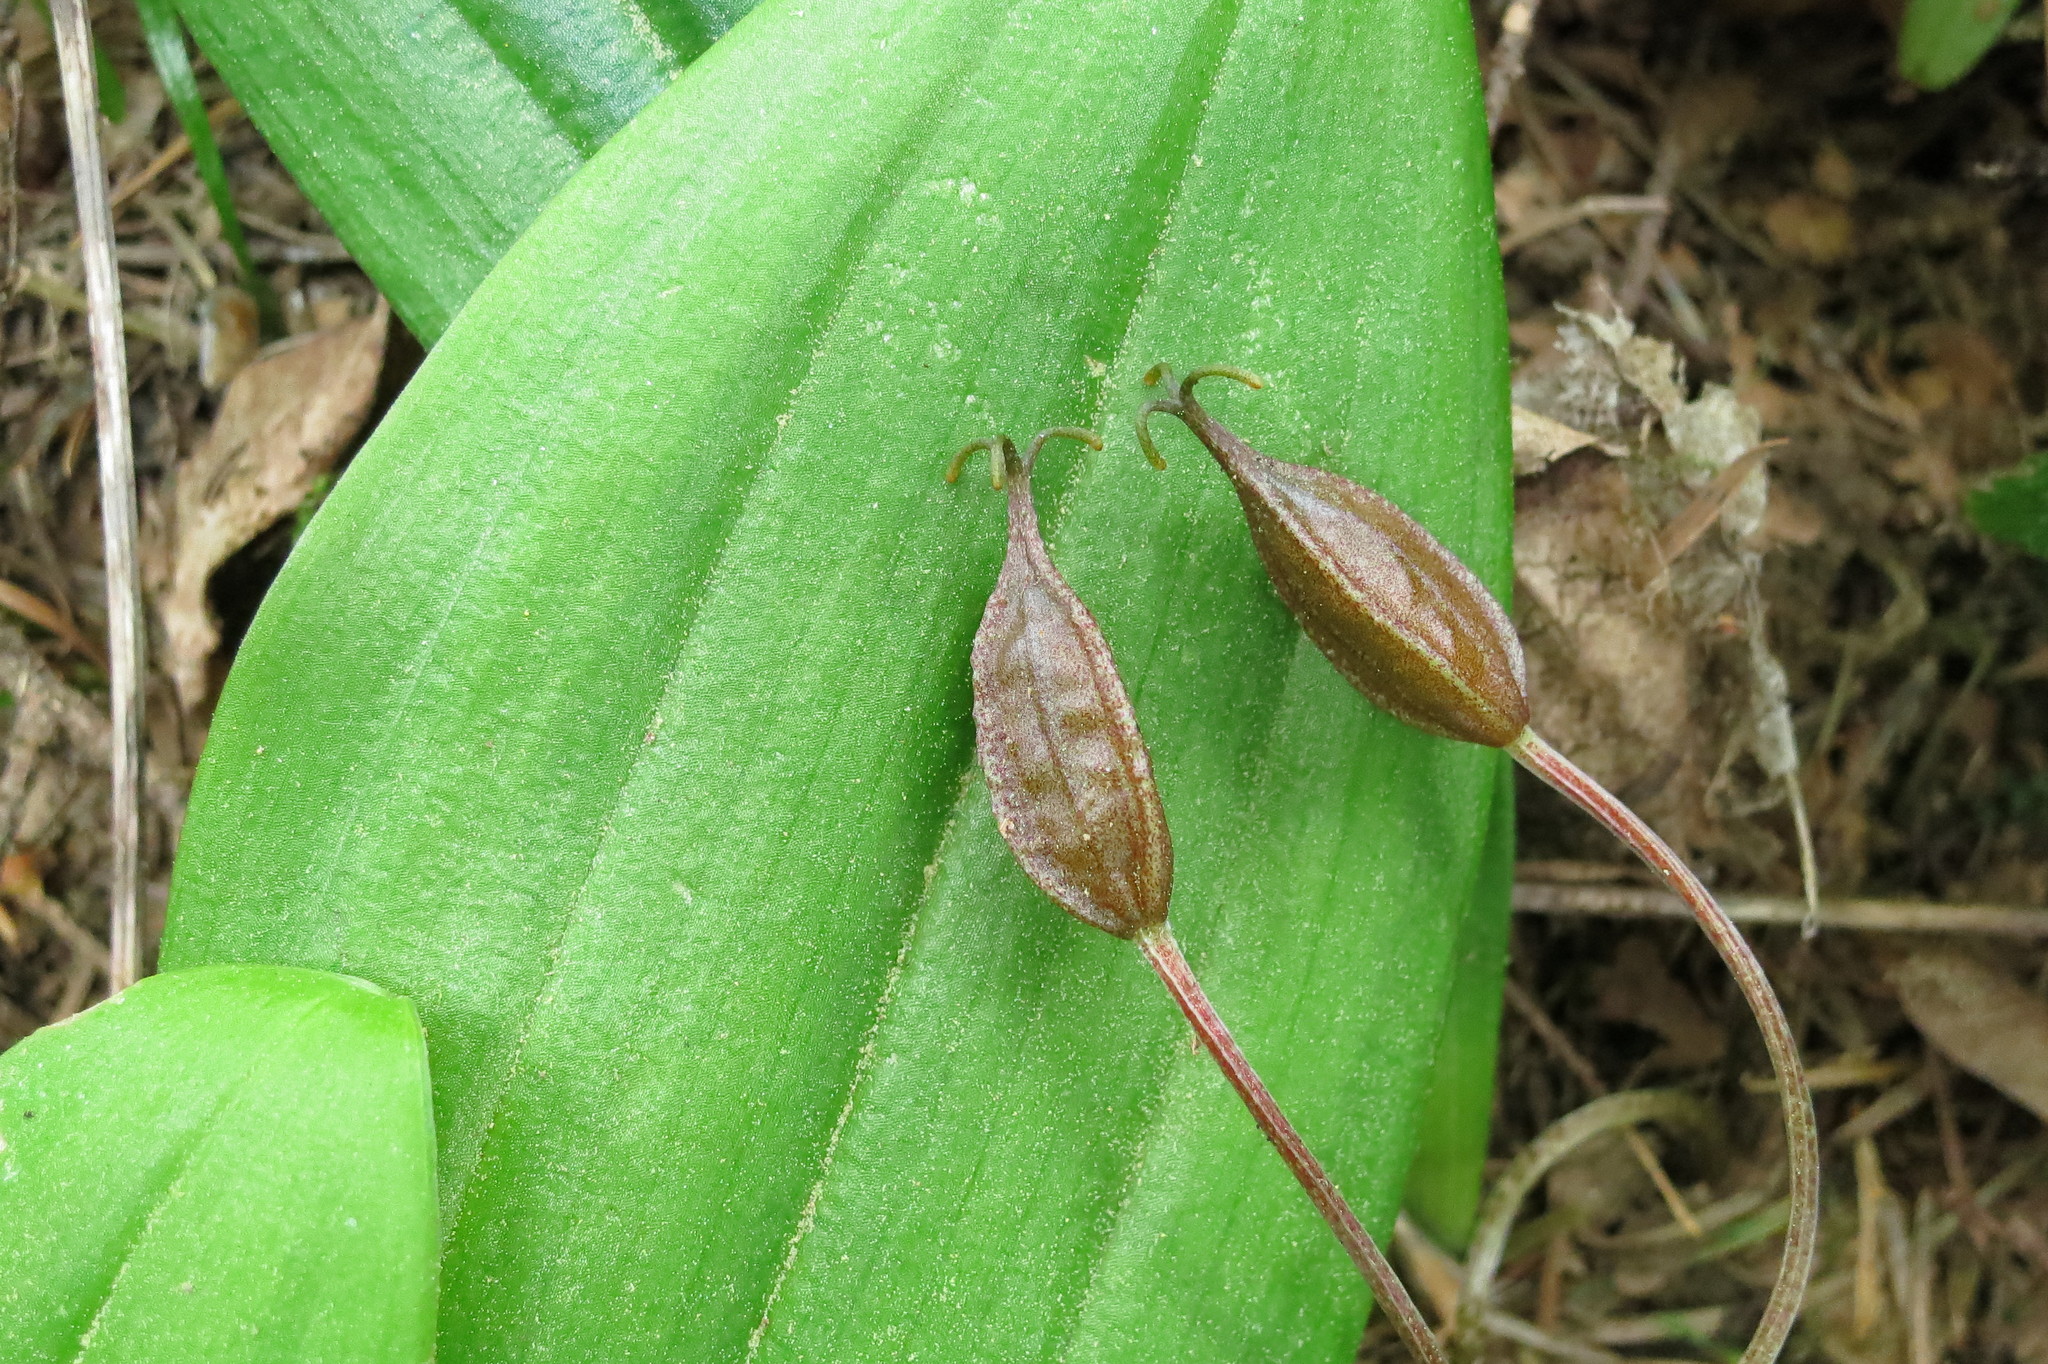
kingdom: Plantae
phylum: Tracheophyta
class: Liliopsida
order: Liliales
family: Liliaceae
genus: Scoliopus
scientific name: Scoliopus hallii
